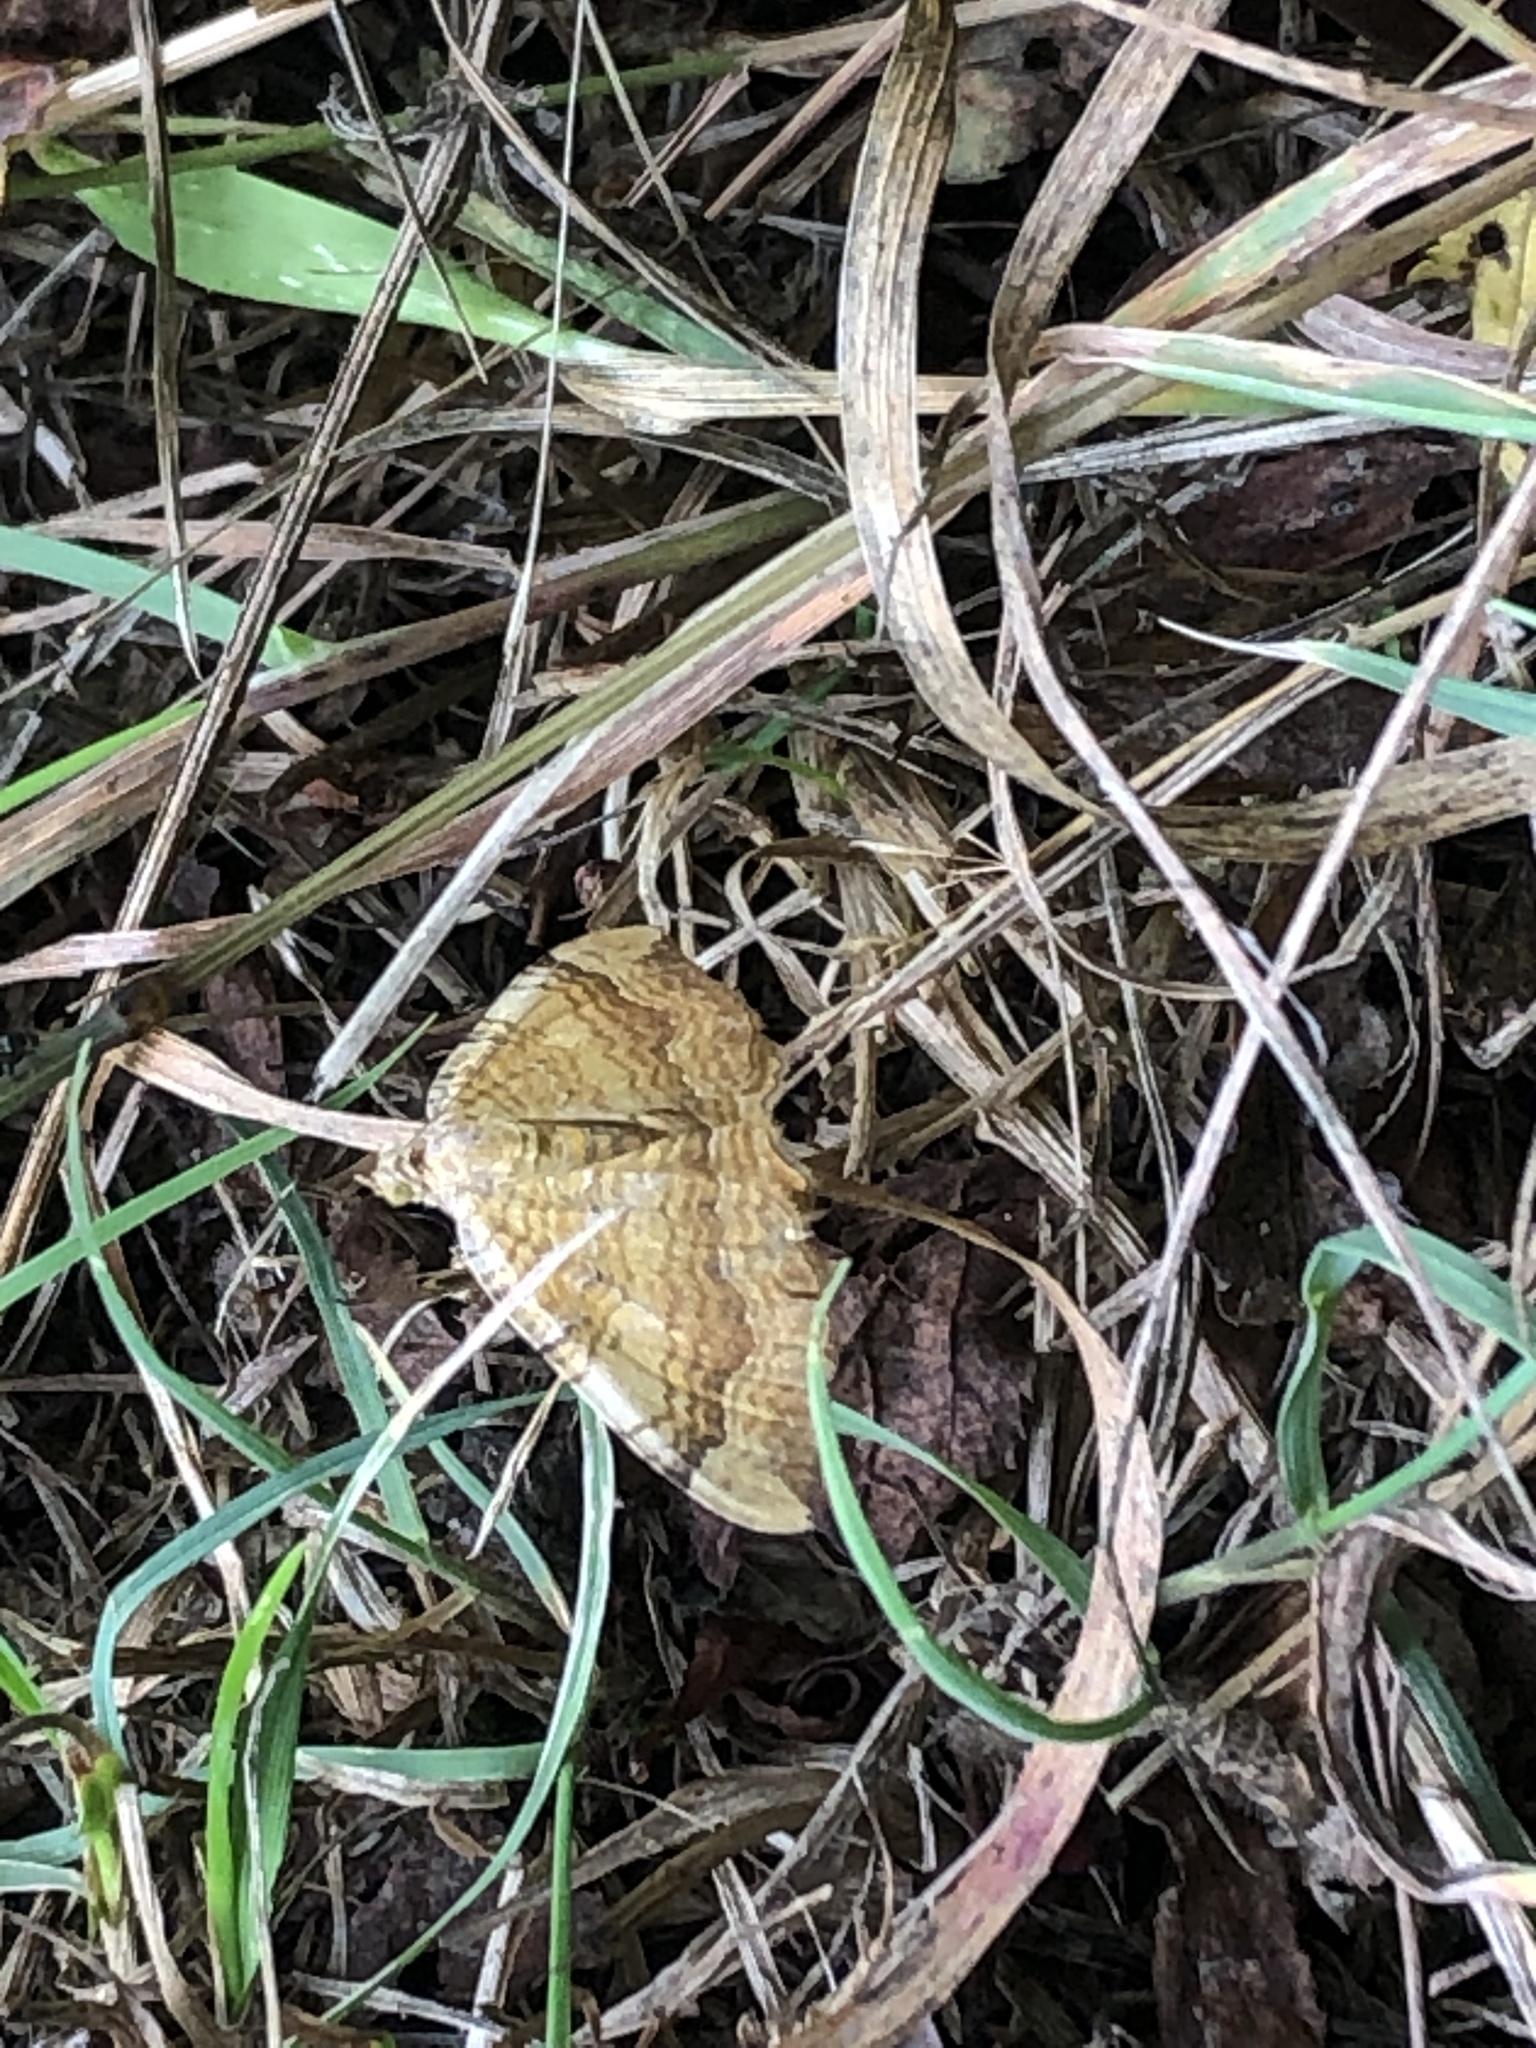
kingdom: Animalia
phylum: Arthropoda
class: Insecta
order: Lepidoptera
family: Geometridae
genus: Camptogramma
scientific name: Camptogramma bilineata
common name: Yellow shell
